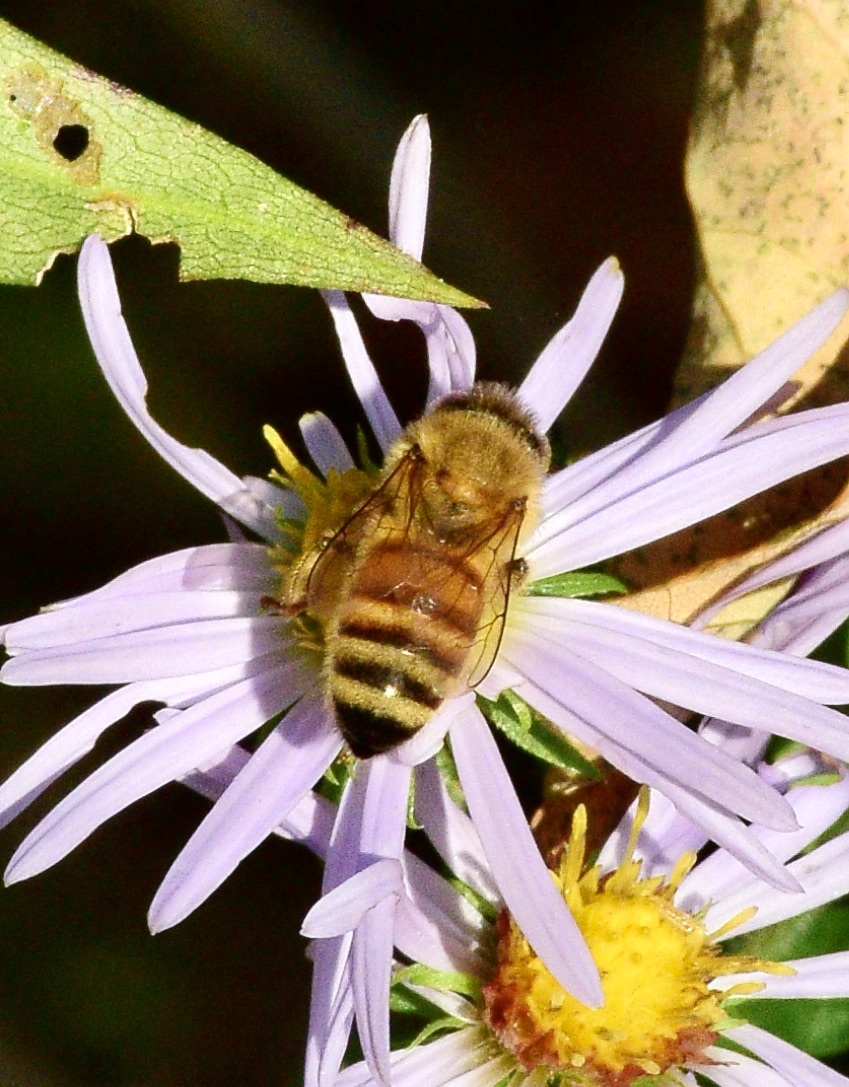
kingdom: Animalia
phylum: Arthropoda
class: Insecta
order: Hymenoptera
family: Apidae
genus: Apis
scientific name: Apis mellifera
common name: Honey bee
